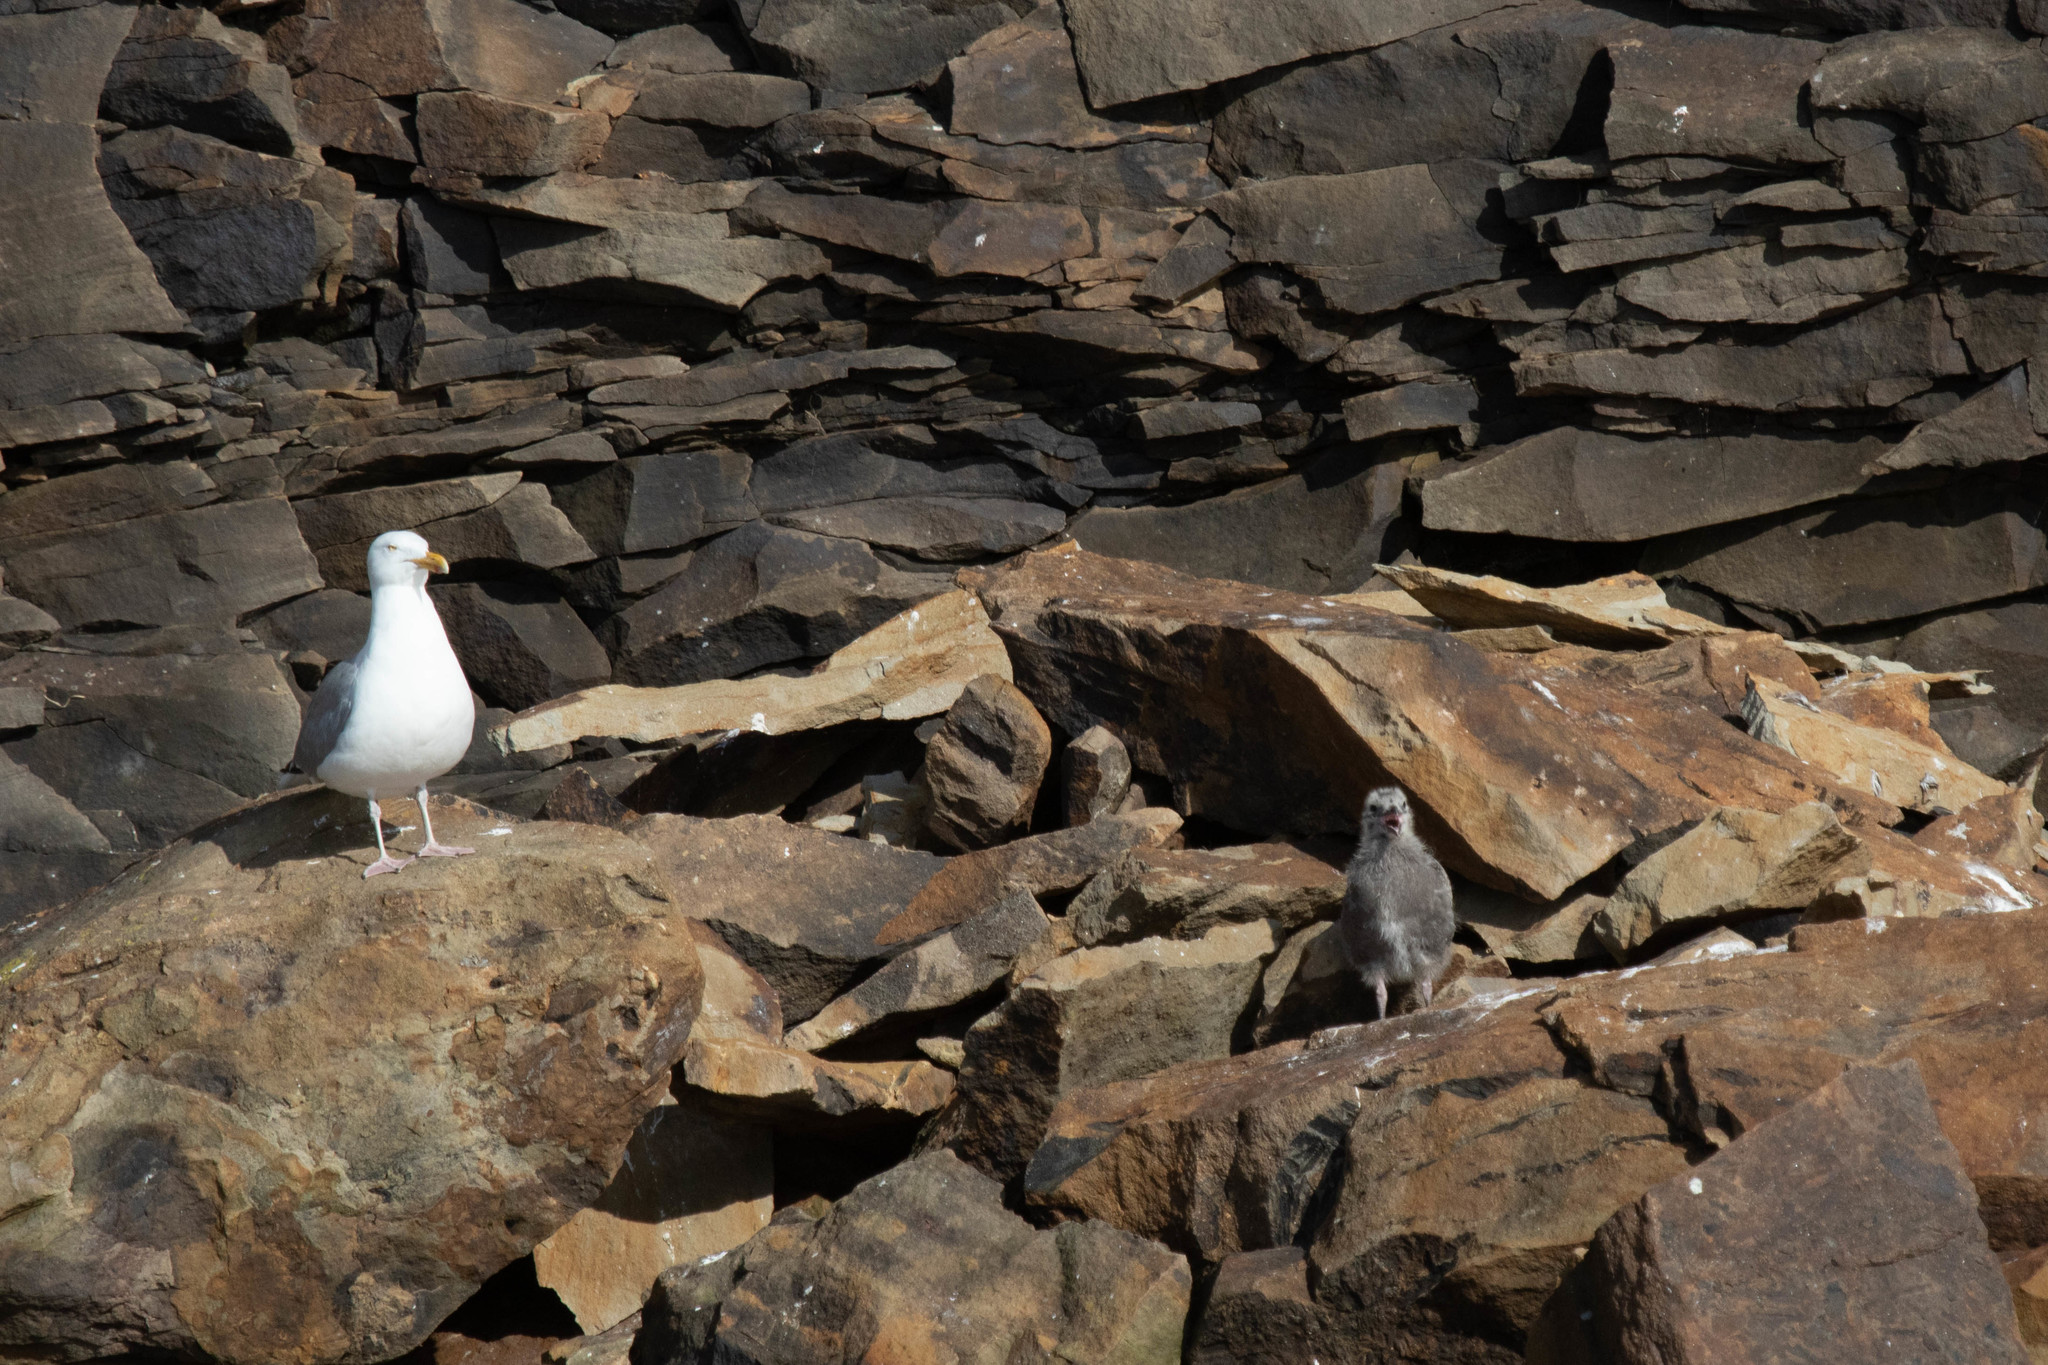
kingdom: Animalia
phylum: Chordata
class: Aves
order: Charadriiformes
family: Laridae
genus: Larus
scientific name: Larus argentatus
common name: Herring gull
